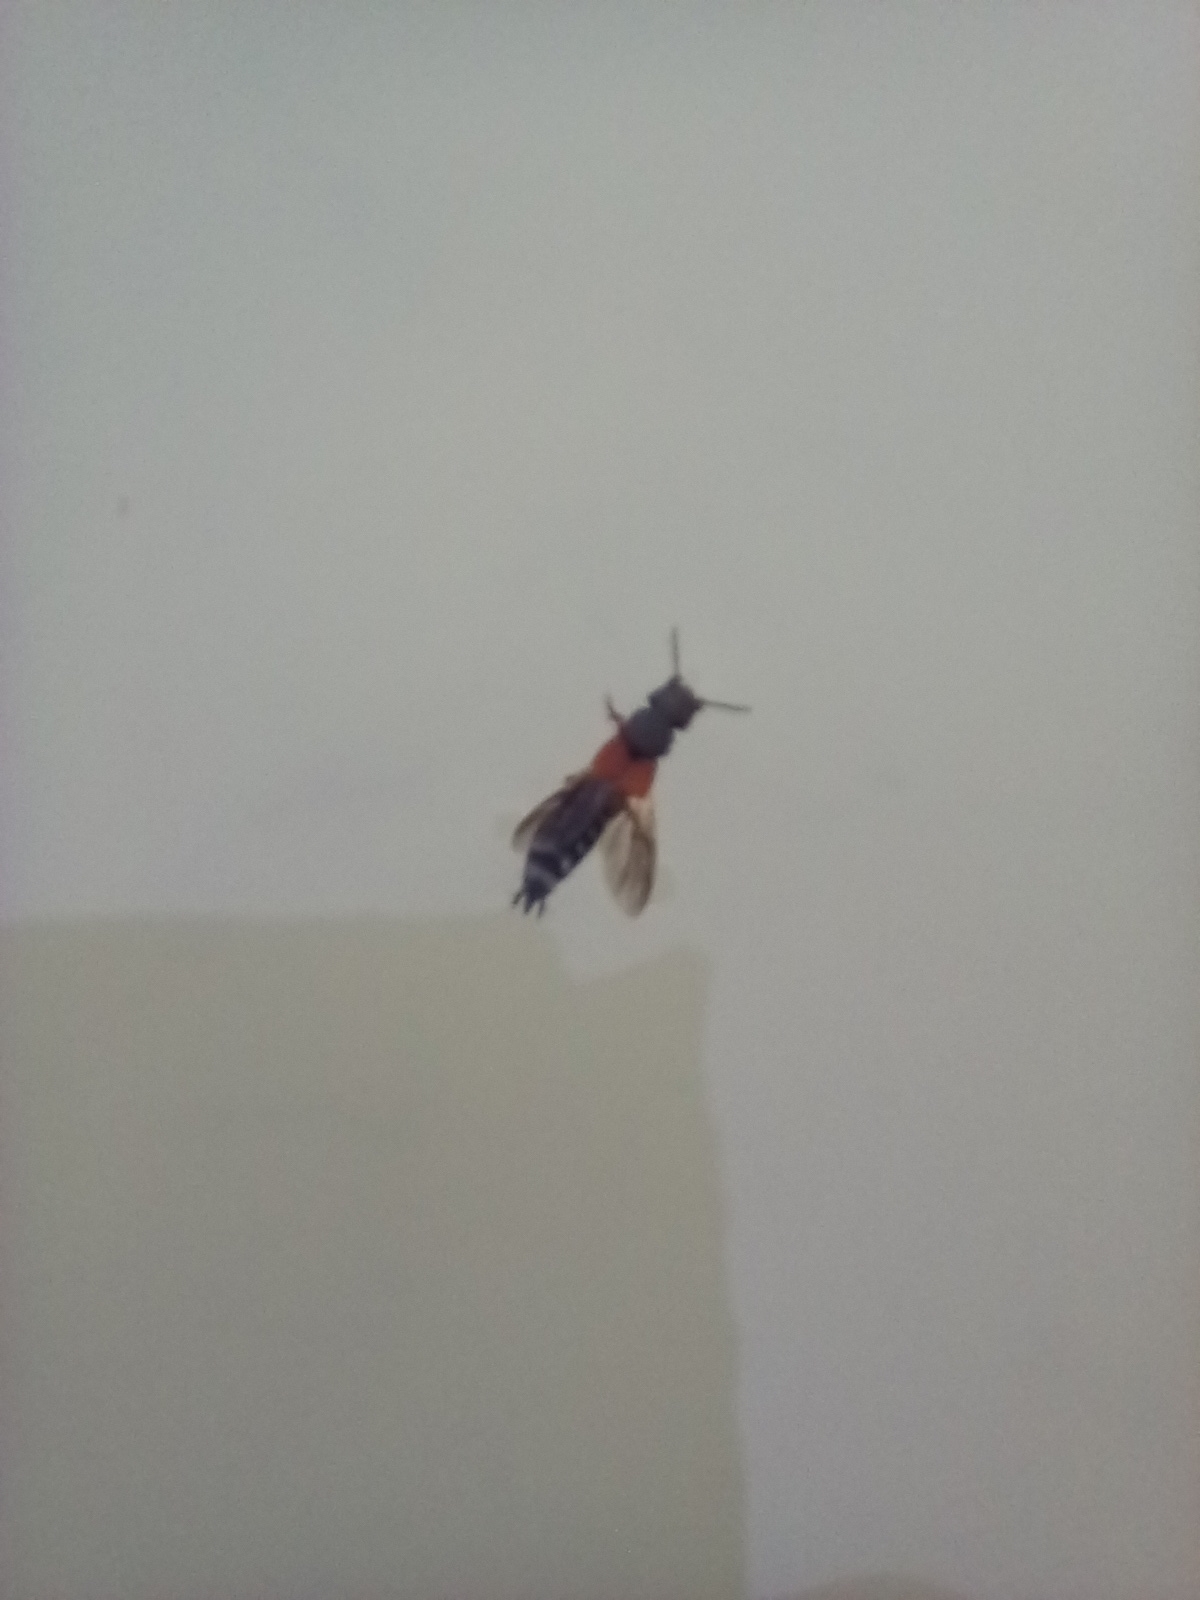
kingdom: Animalia
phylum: Arthropoda
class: Insecta
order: Coleoptera
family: Staphylinidae
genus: Platydracus
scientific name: Platydracus stercorarius
